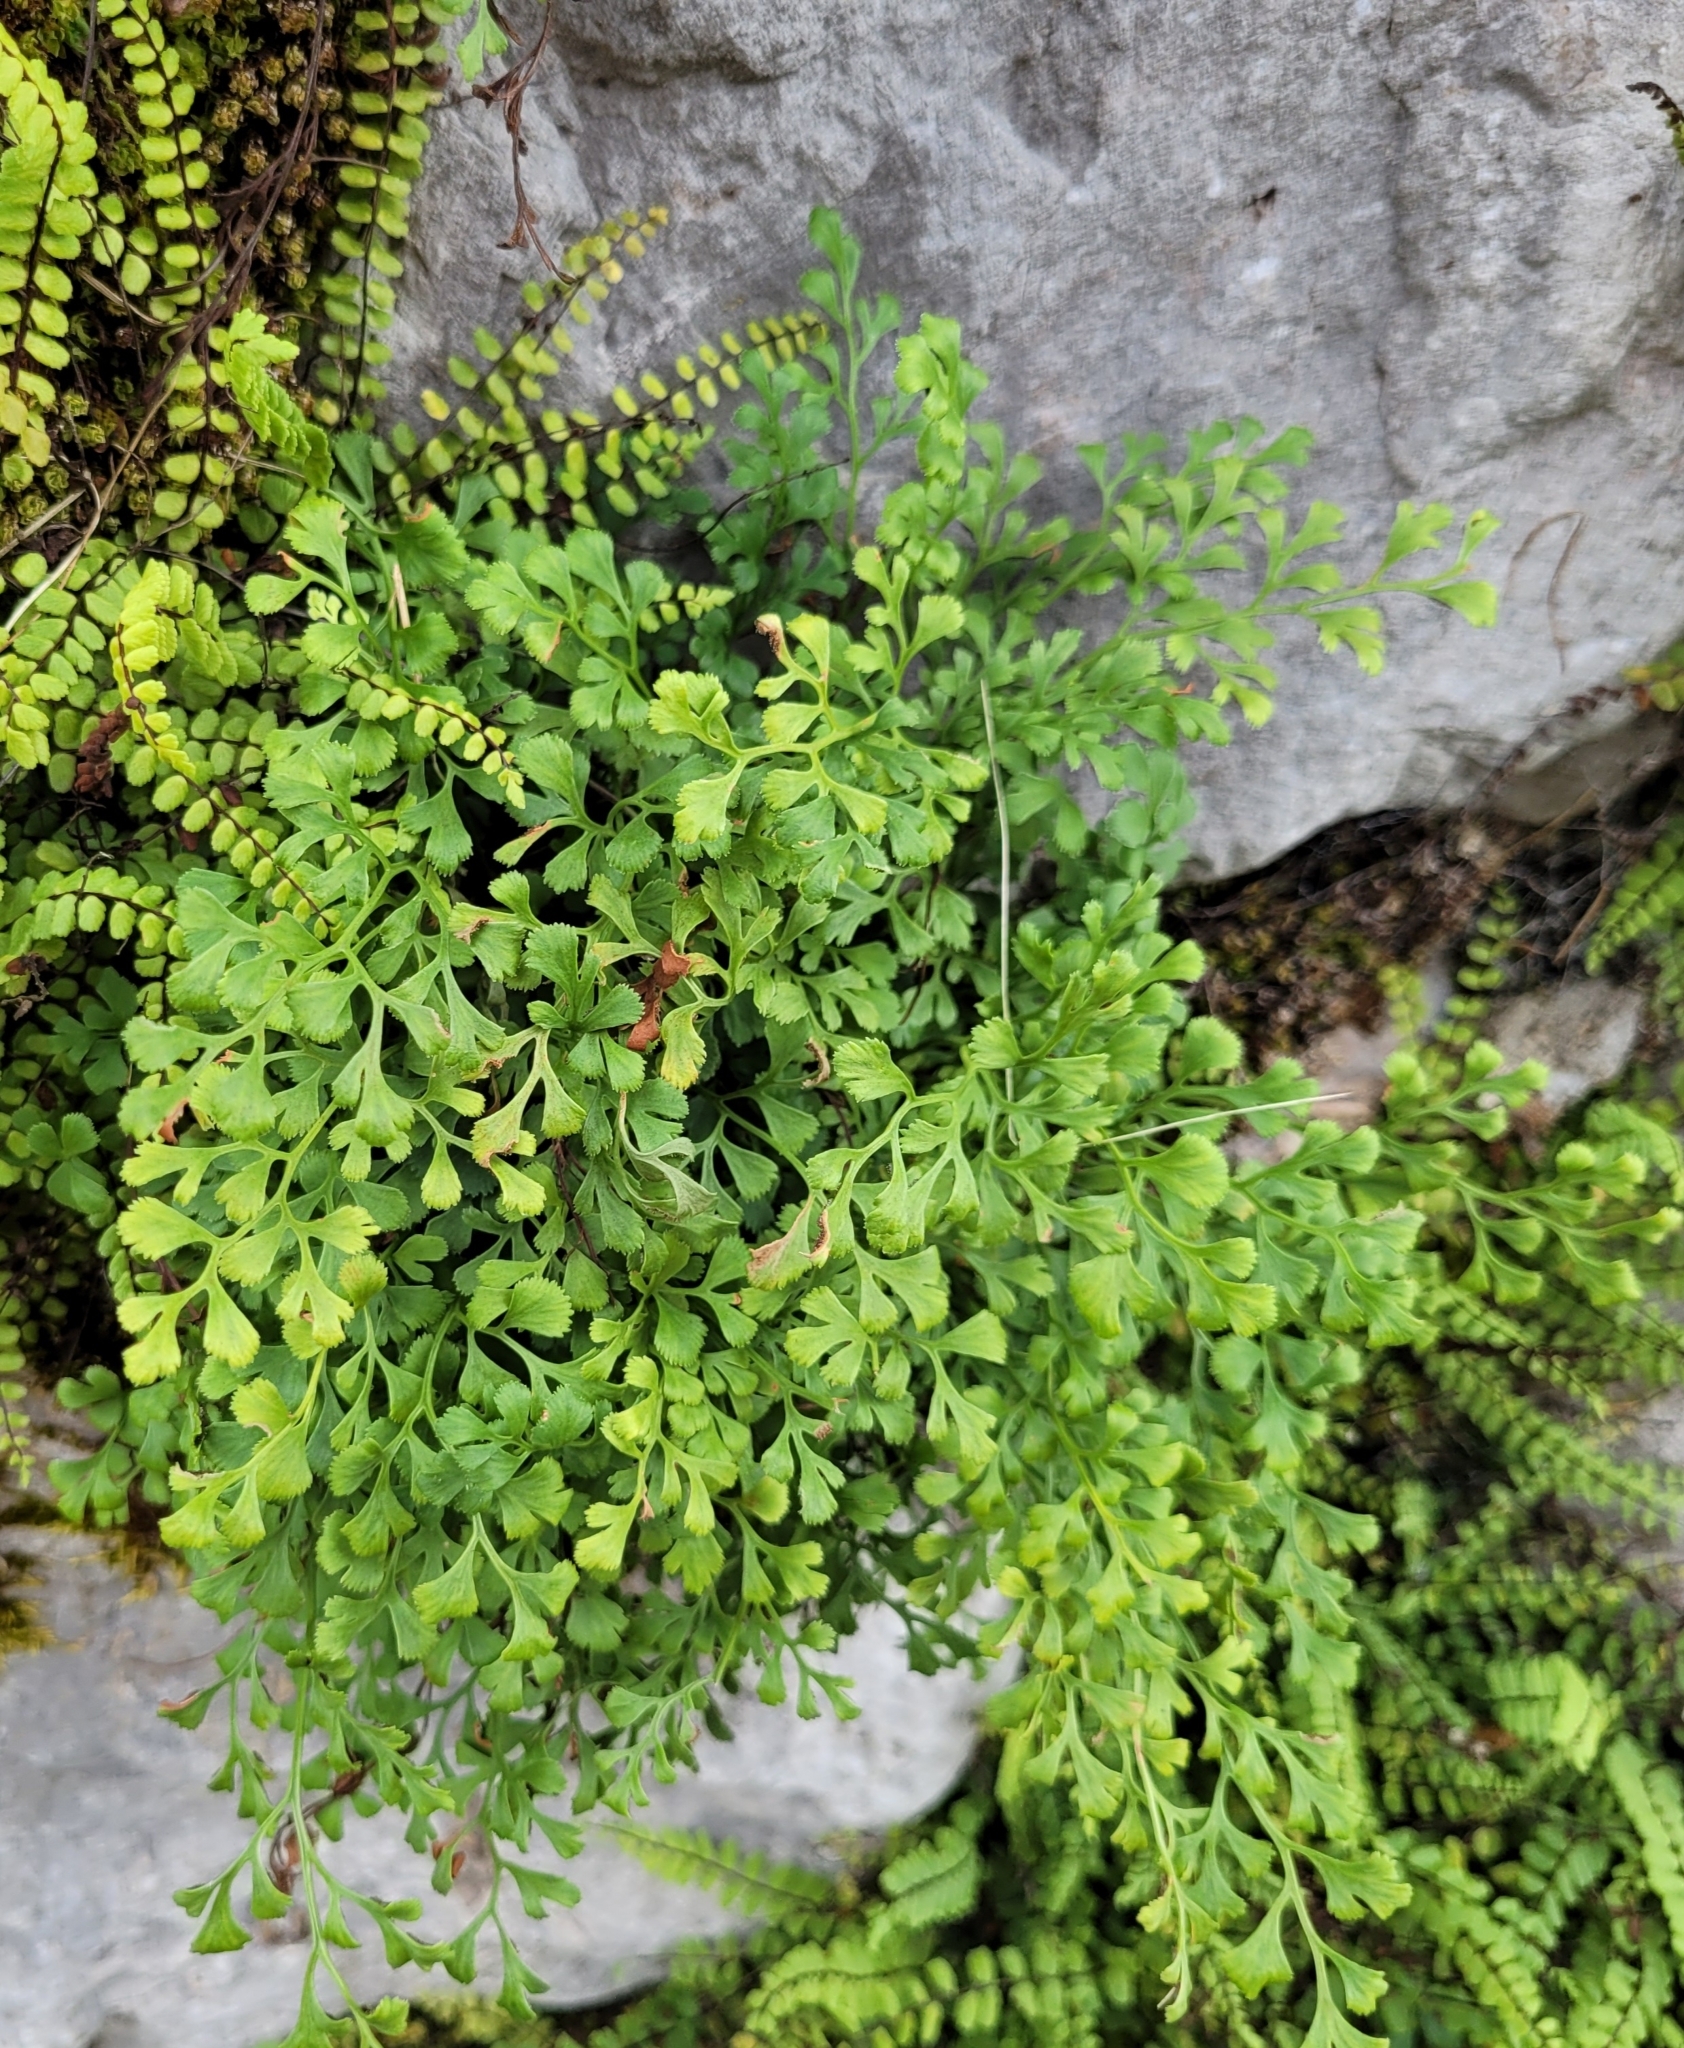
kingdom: Plantae
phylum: Tracheophyta
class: Polypodiopsida
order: Polypodiales
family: Aspleniaceae
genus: Asplenium
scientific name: Asplenium ruta-muraria
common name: Wall-rue
